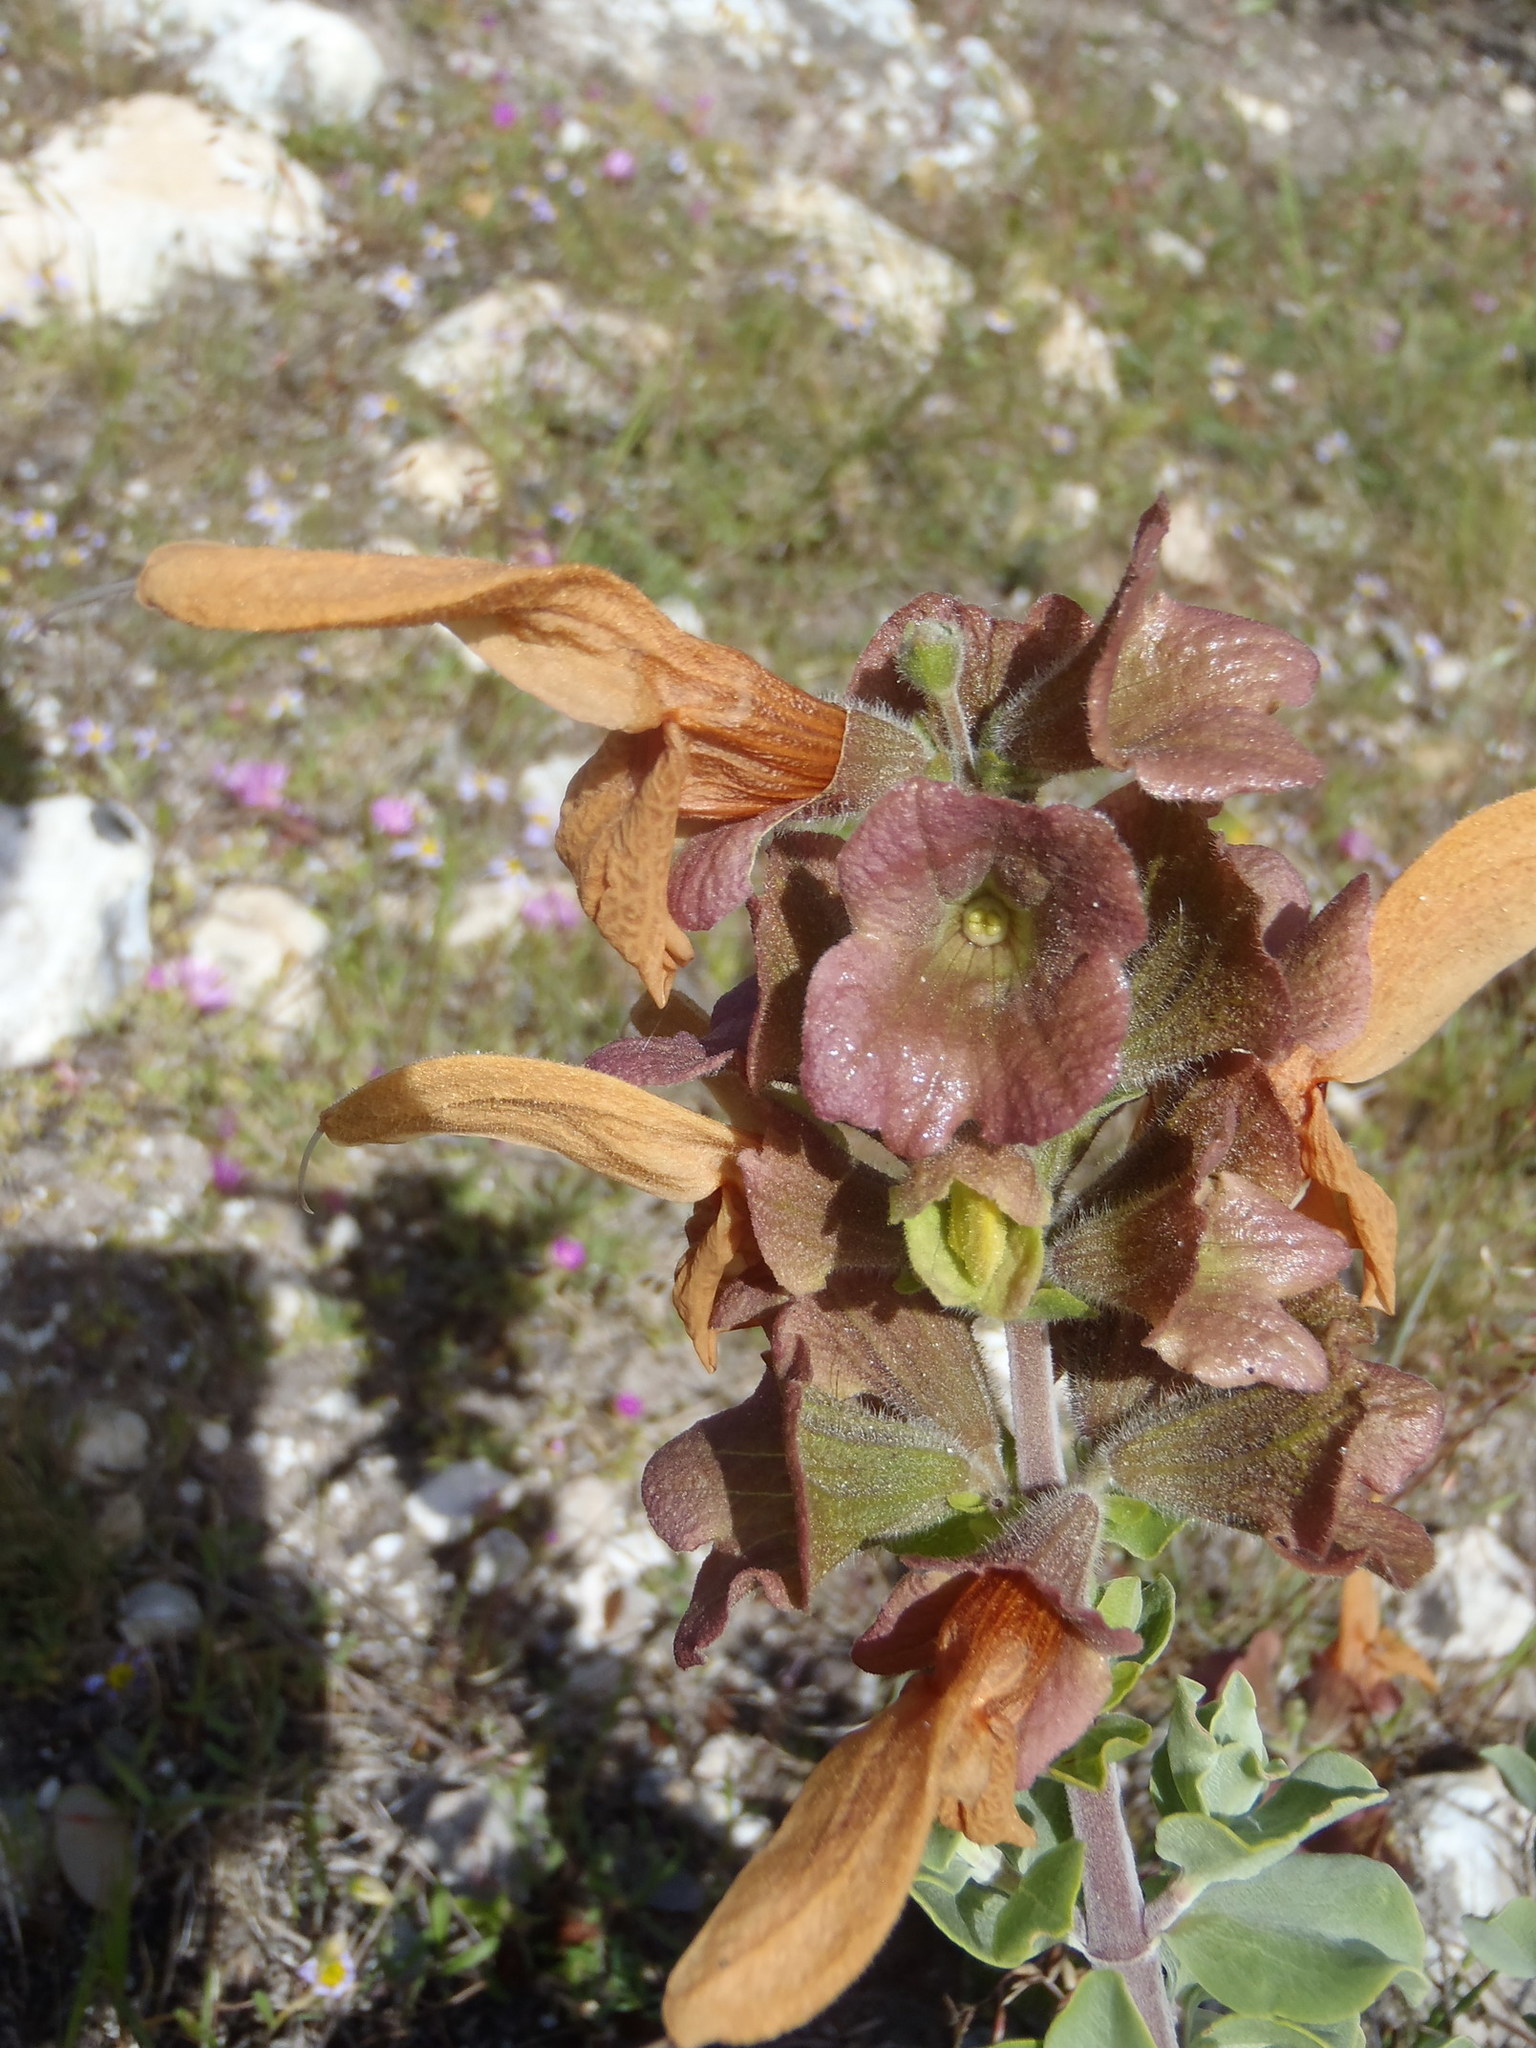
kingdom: Plantae
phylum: Tracheophyta
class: Magnoliopsida
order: Lamiales
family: Lamiaceae
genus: Salvia
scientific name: Salvia aurea
